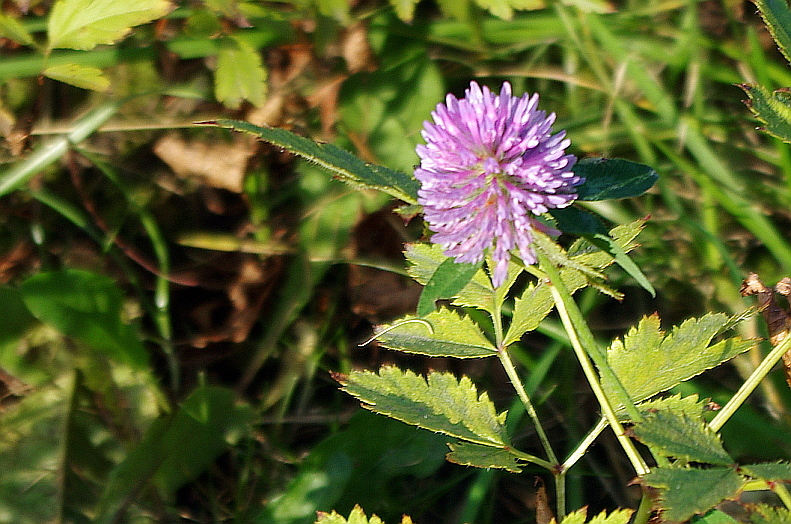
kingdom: Plantae
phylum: Tracheophyta
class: Magnoliopsida
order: Fabales
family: Fabaceae
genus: Trifolium
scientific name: Trifolium pratense
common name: Red clover
